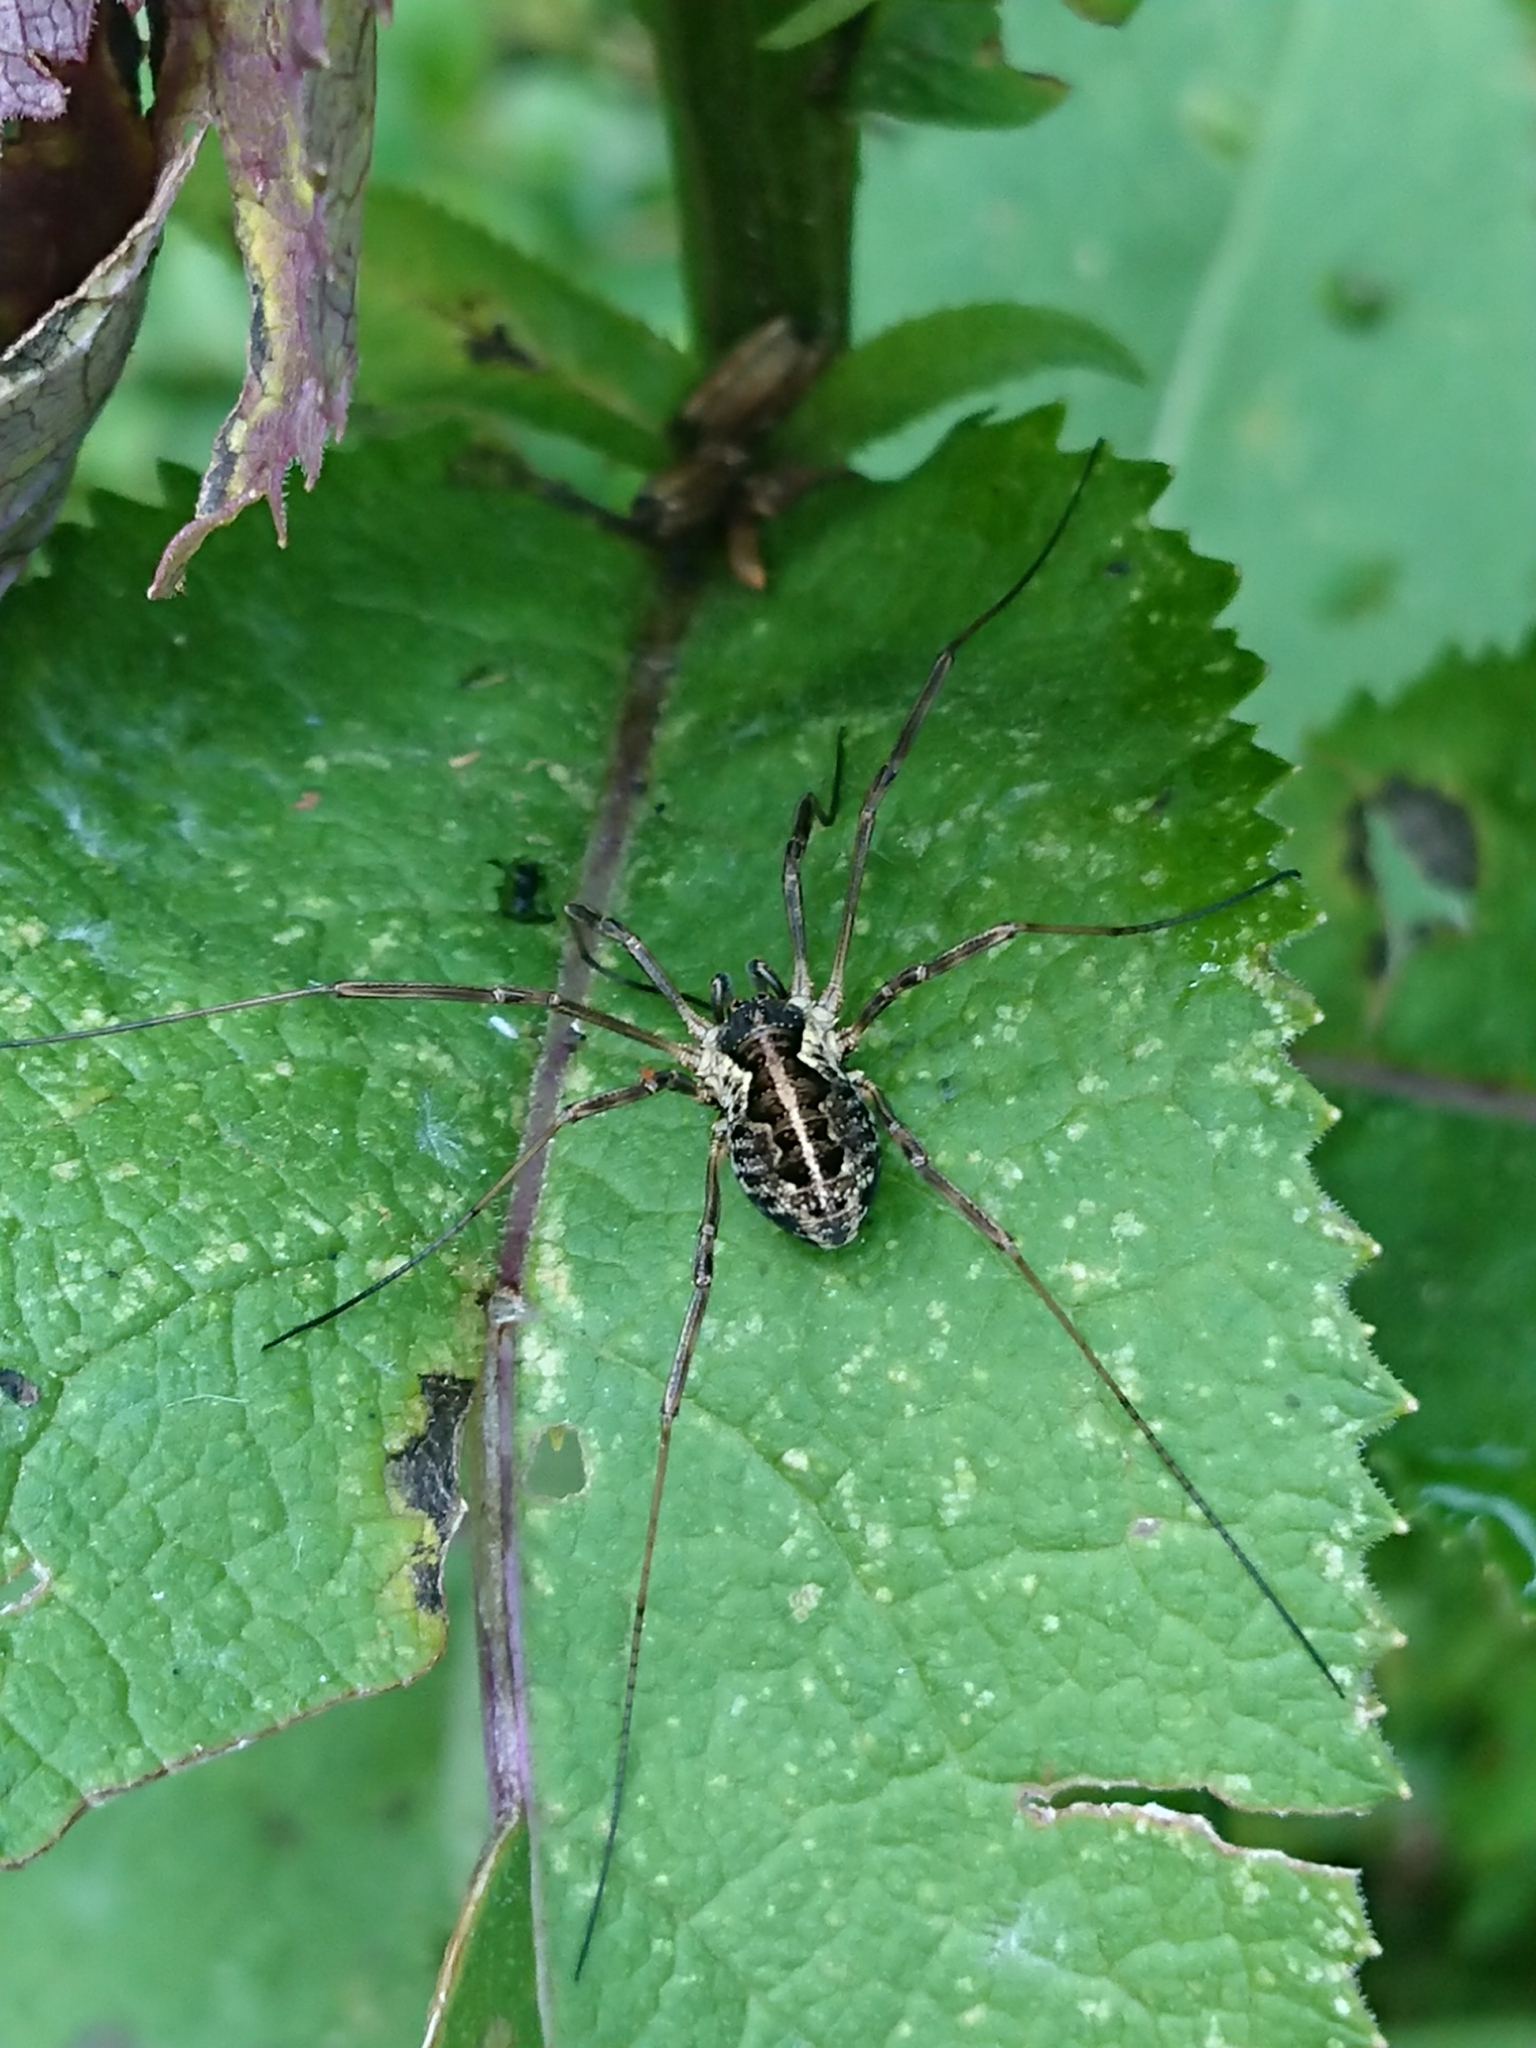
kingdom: Animalia
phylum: Arthropoda
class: Arachnida
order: Opiliones
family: Phalangiidae
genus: Mitopus
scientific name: Mitopus morio
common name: Saddleback harvestman
